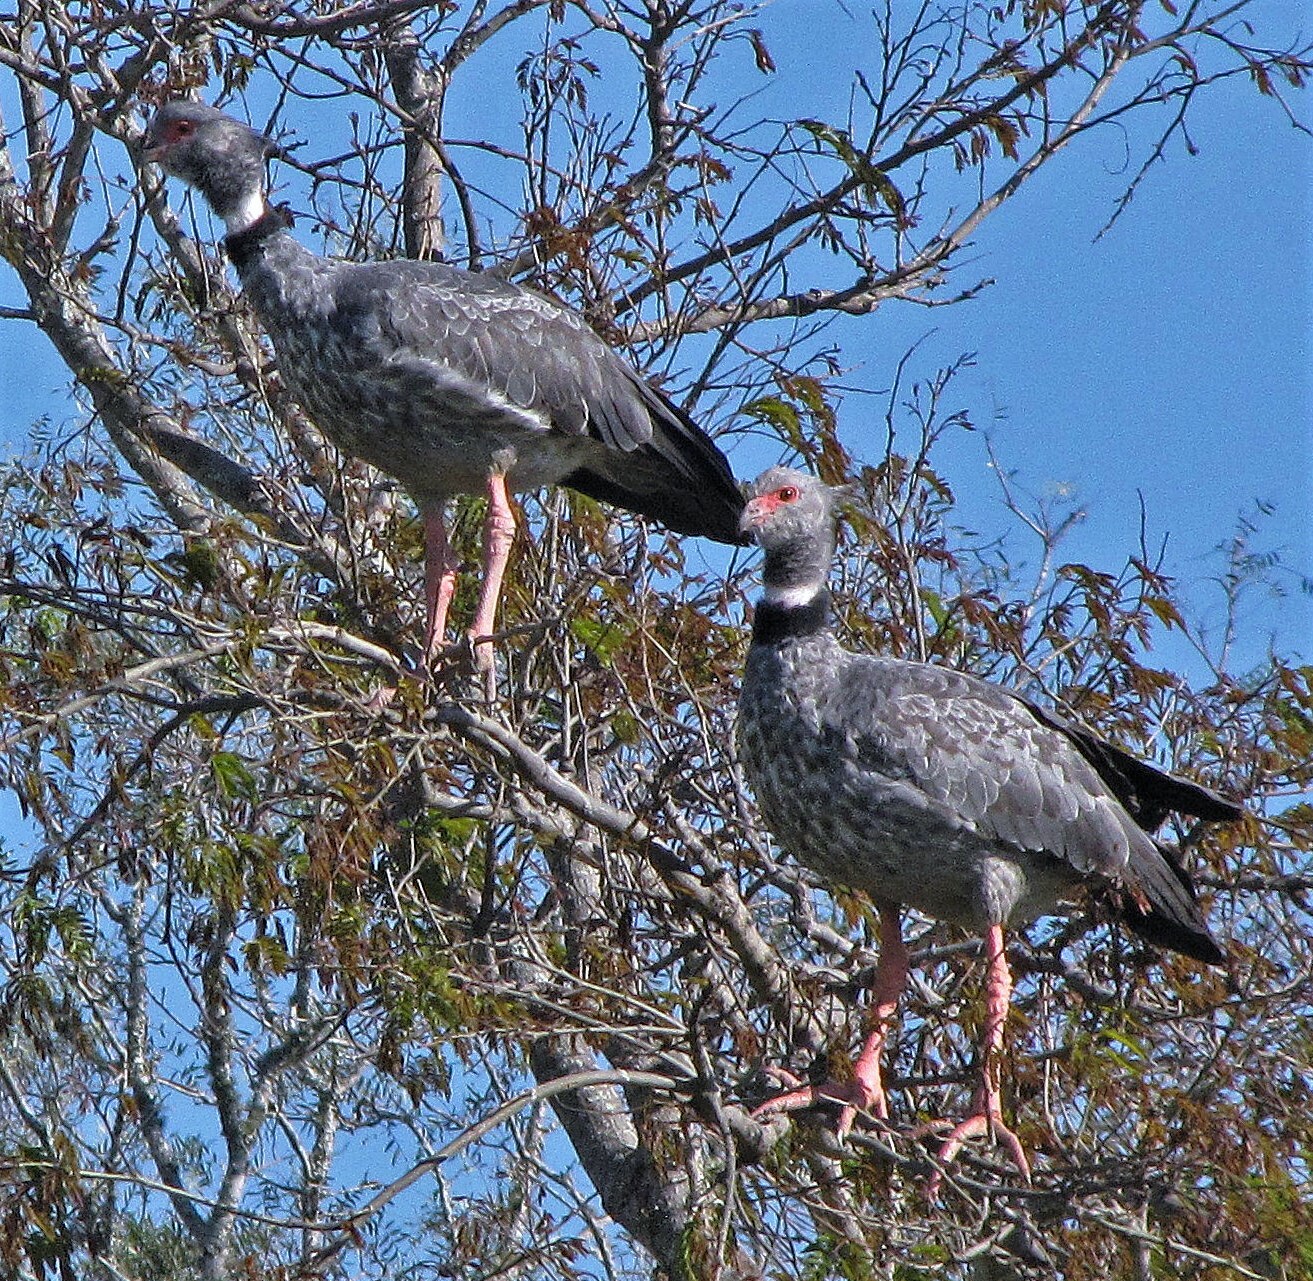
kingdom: Animalia
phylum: Chordata
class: Aves
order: Anseriformes
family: Anhimidae
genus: Chauna
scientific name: Chauna torquata
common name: Southern screamer
